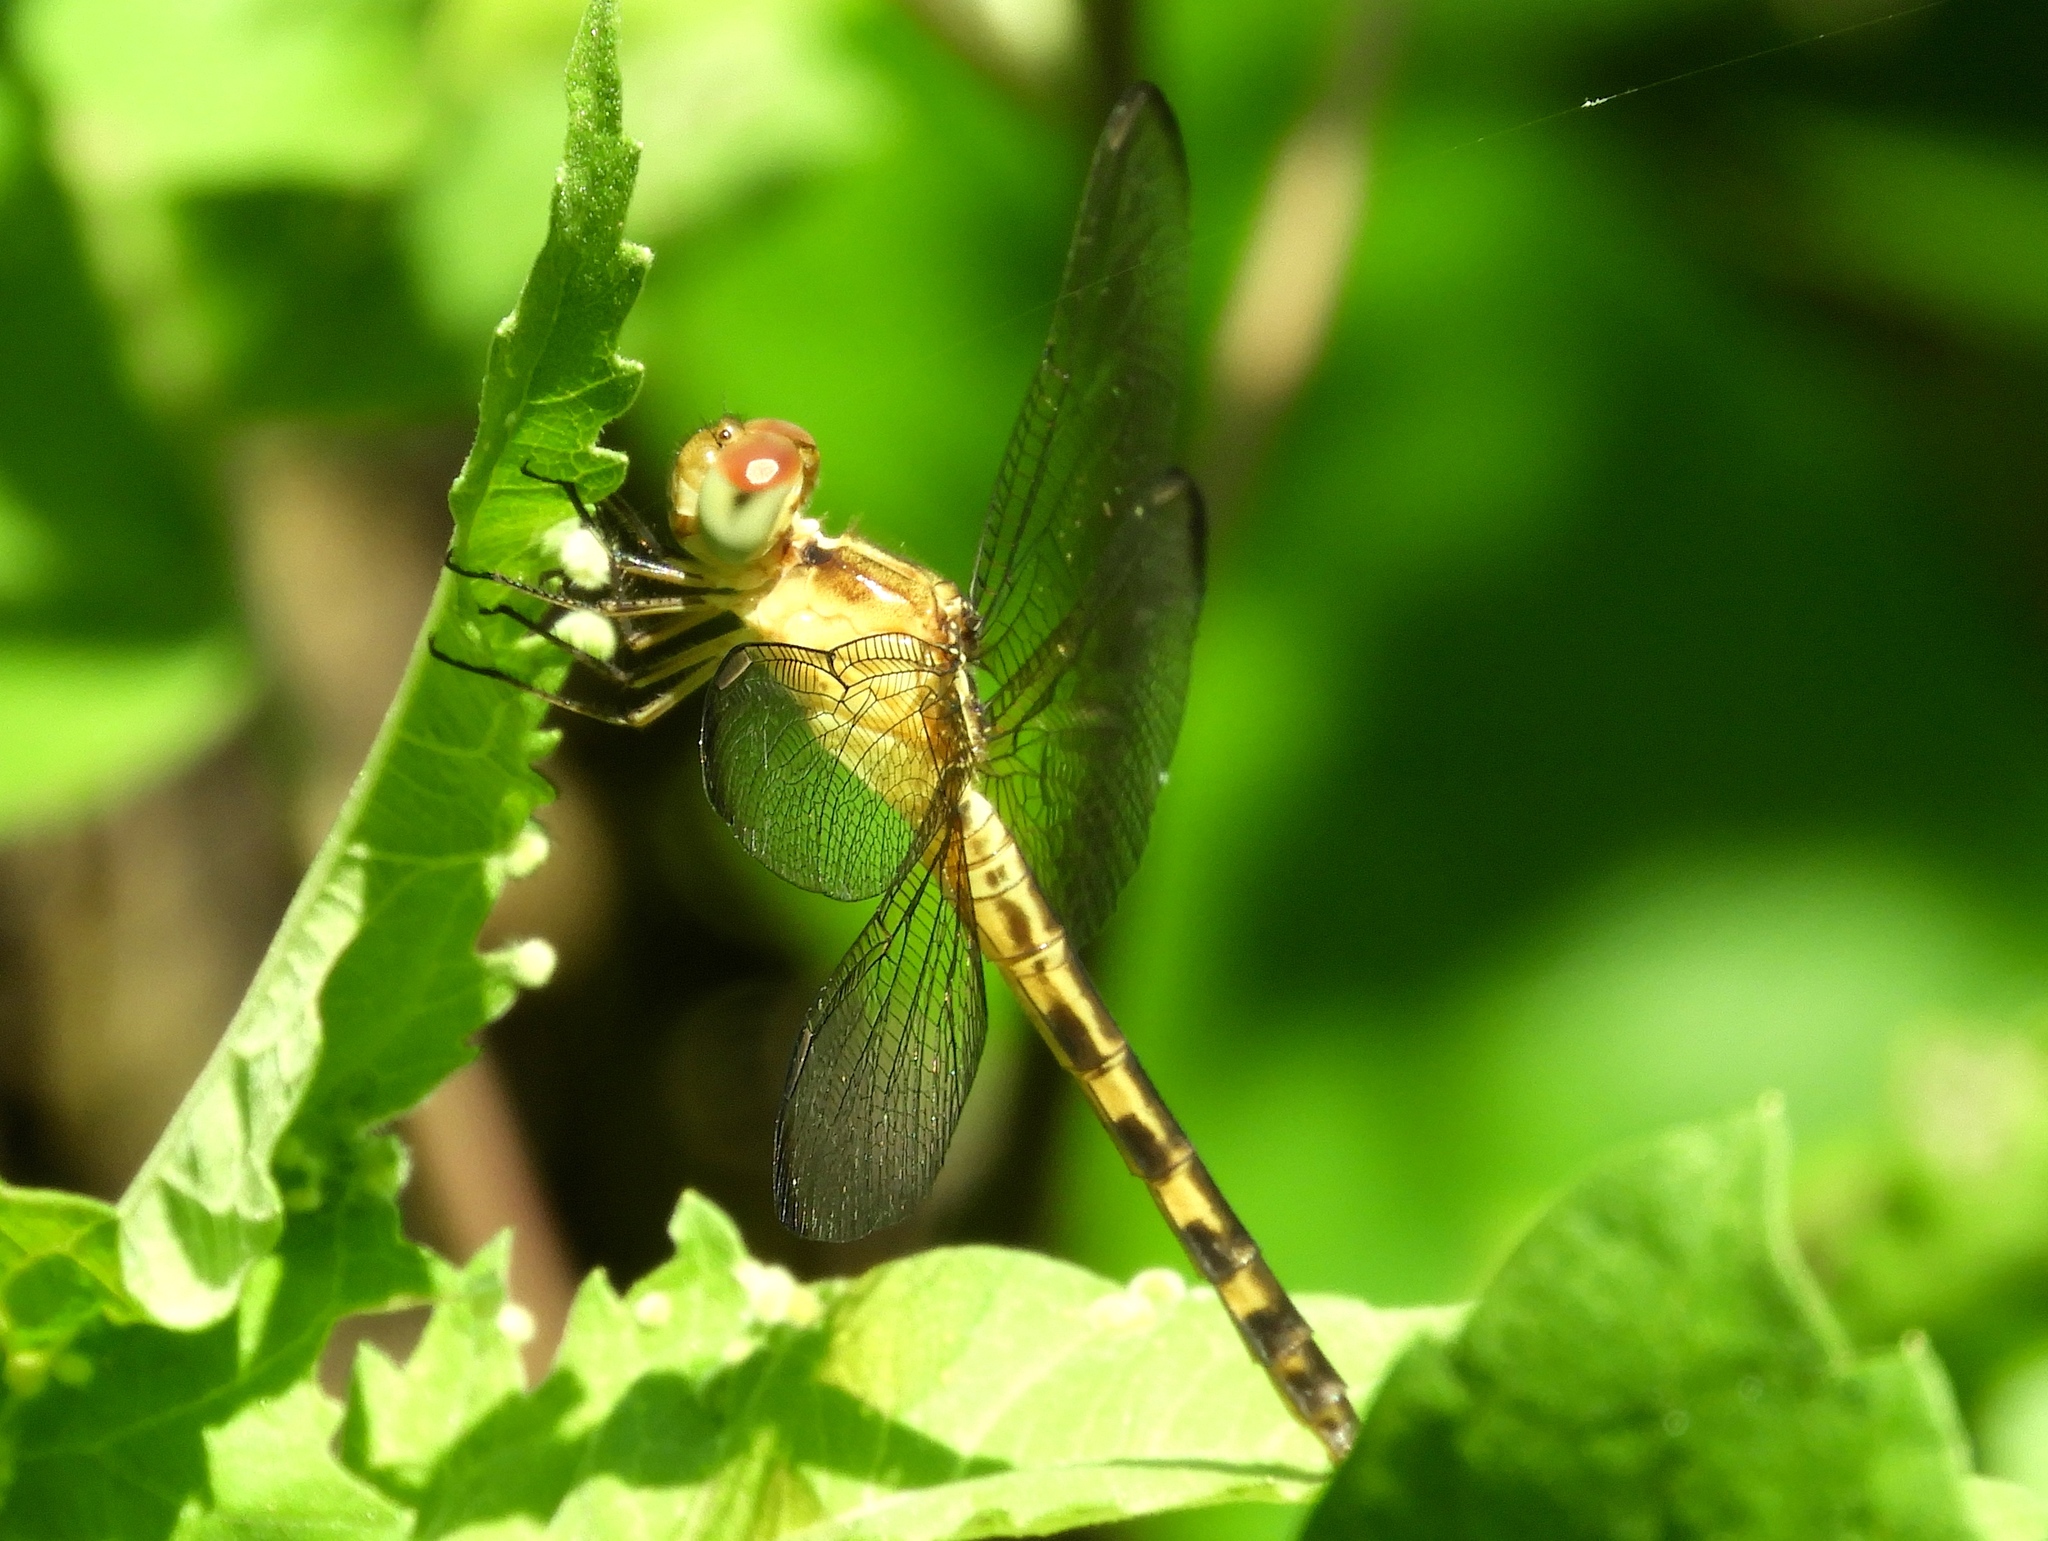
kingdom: Animalia
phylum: Arthropoda
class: Insecta
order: Odonata
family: Libellulidae
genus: Erythrodiplax
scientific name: Erythrodiplax funerea
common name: Black-winged dragonlet
